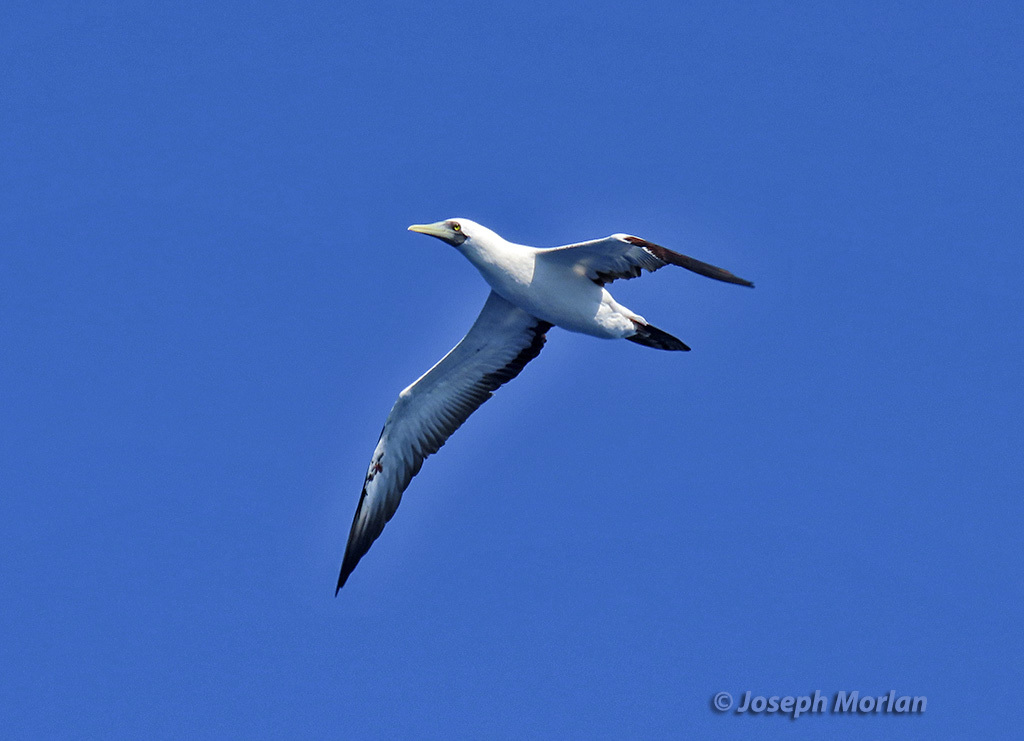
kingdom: Animalia
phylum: Chordata
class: Aves
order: Suliformes
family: Sulidae
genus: Sula
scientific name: Sula dactylatra
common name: Masked booby
